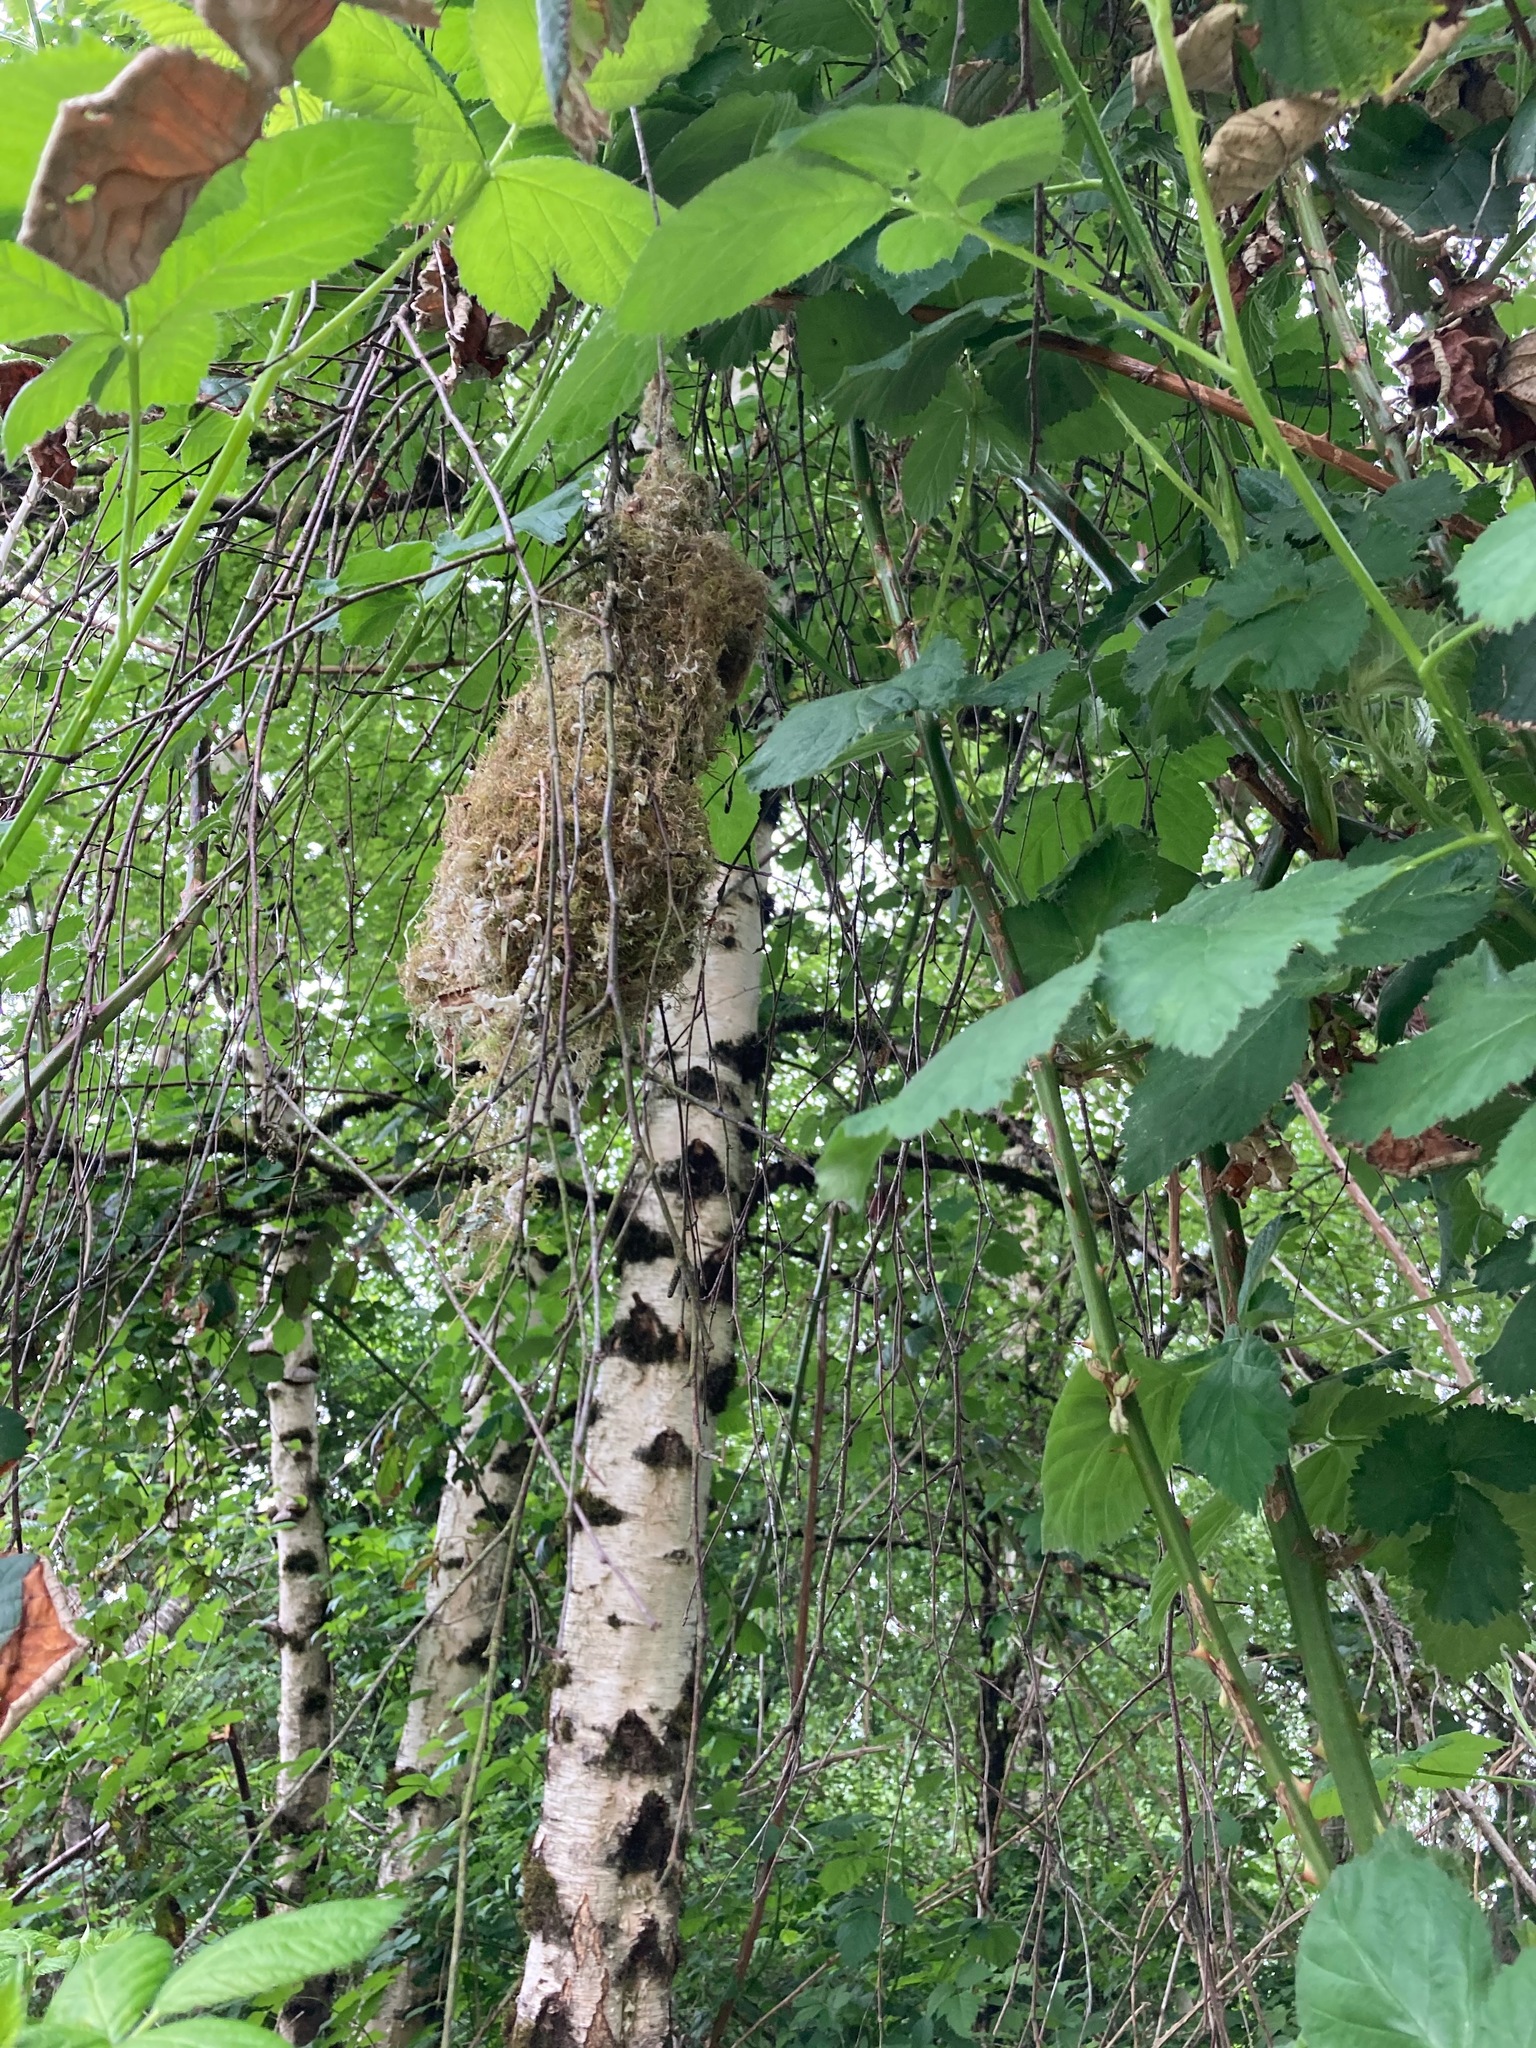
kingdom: Animalia
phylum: Chordata
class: Aves
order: Passeriformes
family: Aegithalidae
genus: Psaltriparus
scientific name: Psaltriparus minimus
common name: American bushtit
